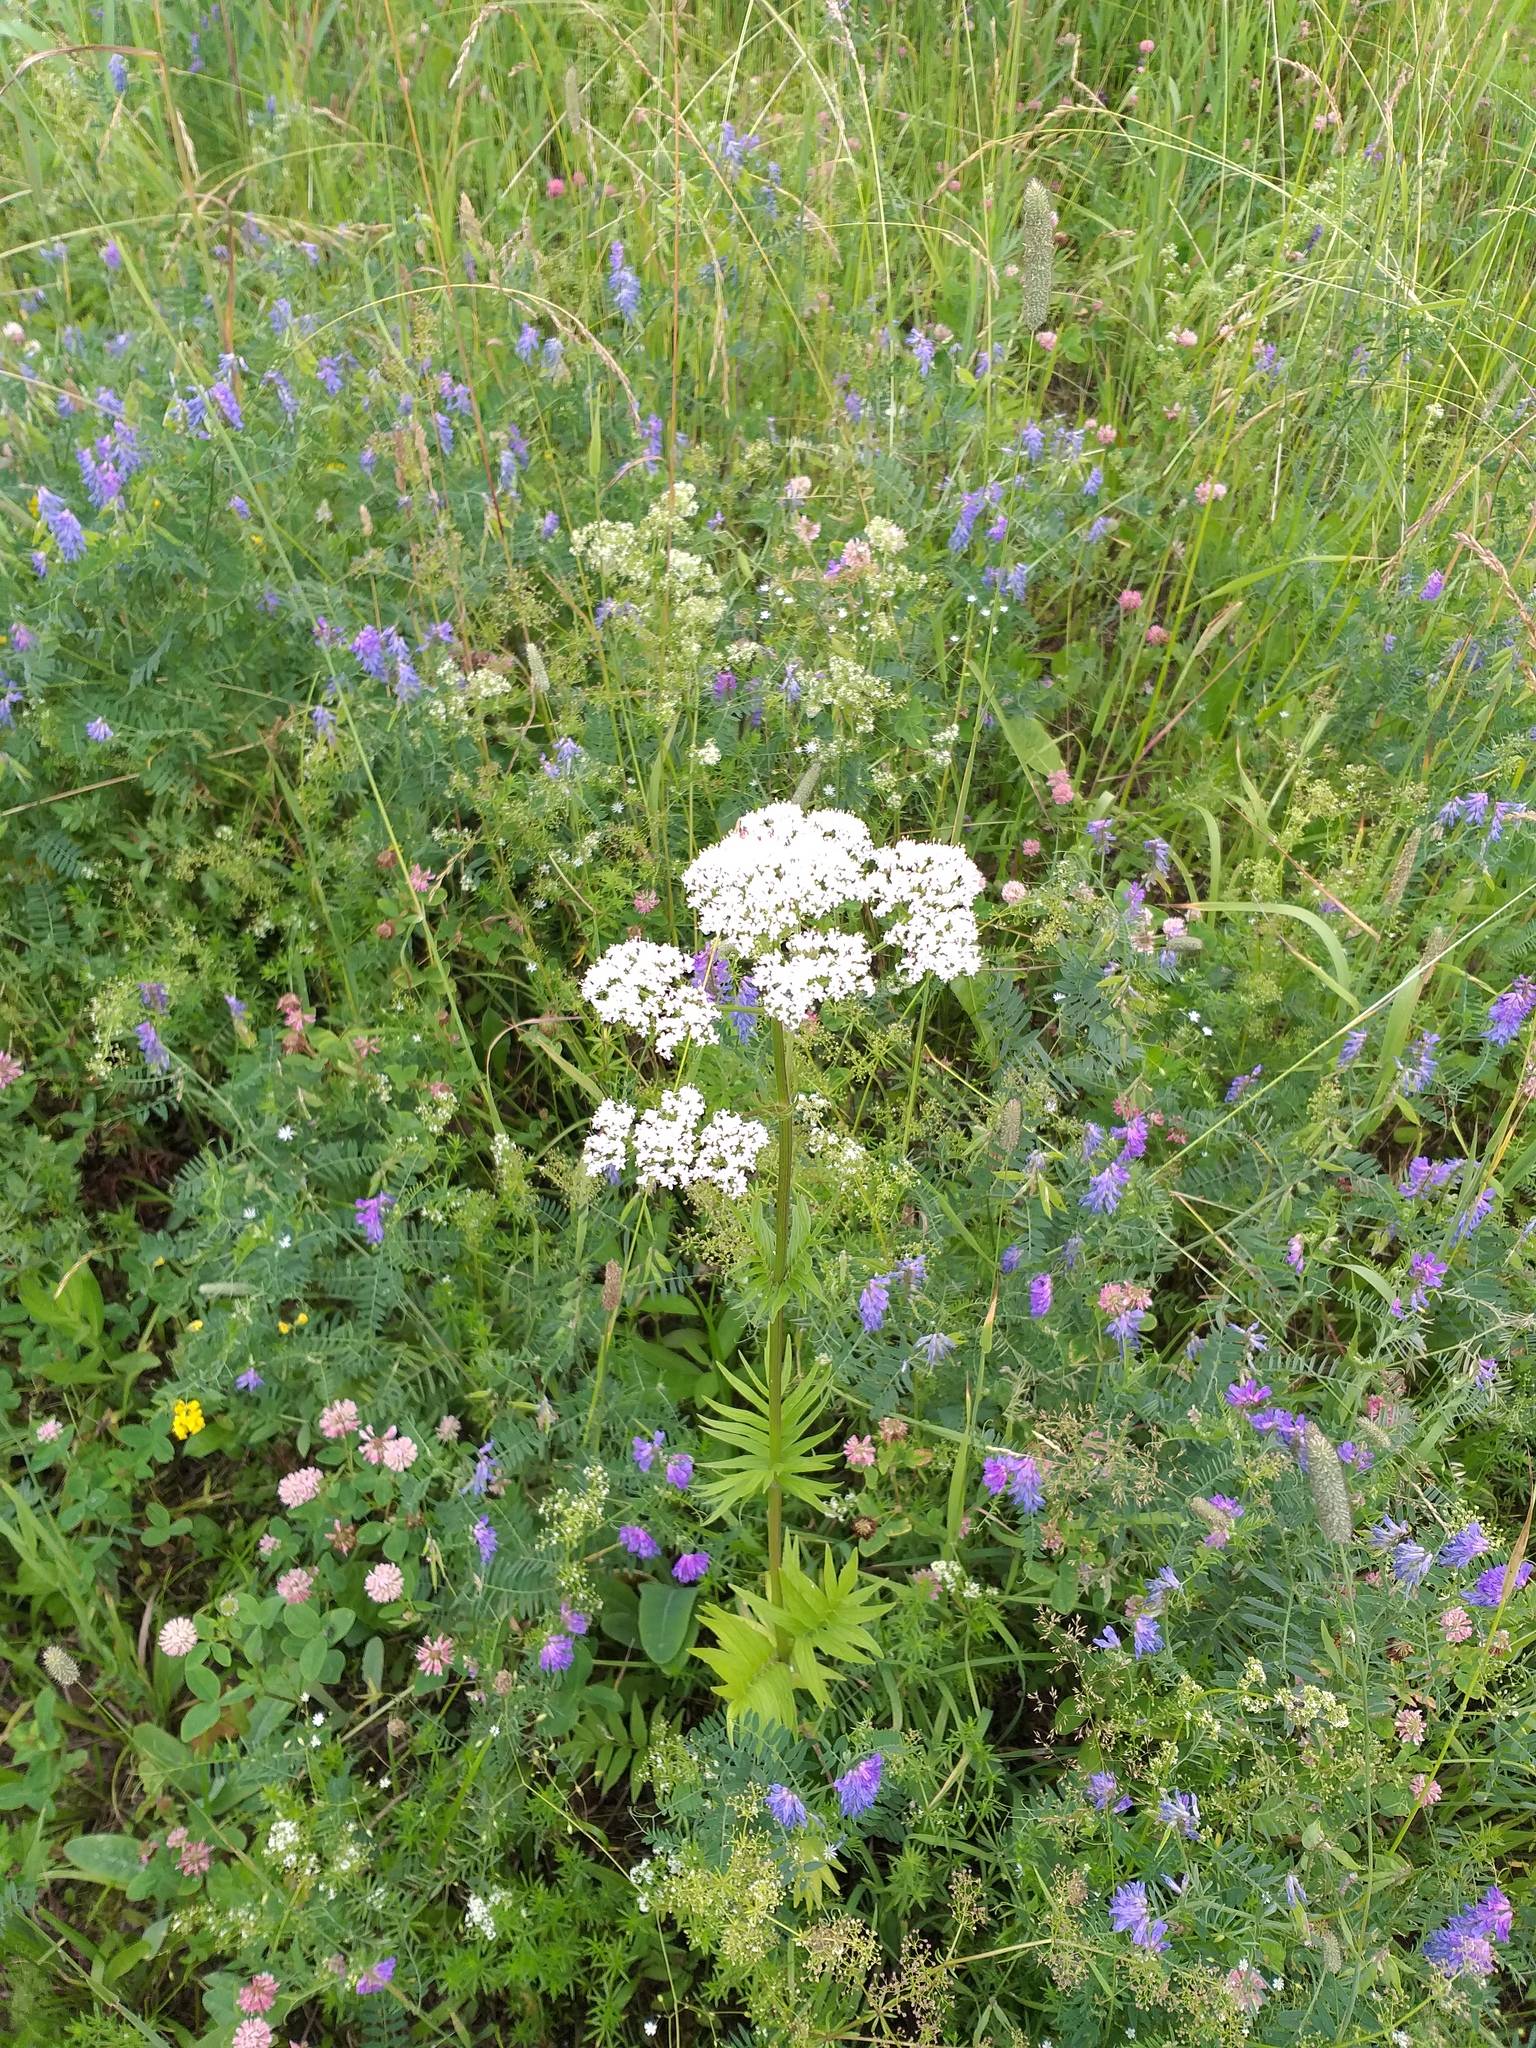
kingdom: Plantae
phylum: Tracheophyta
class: Magnoliopsida
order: Dipsacales
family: Caprifoliaceae
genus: Valeriana
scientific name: Valeriana officinalis
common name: Common valerian
